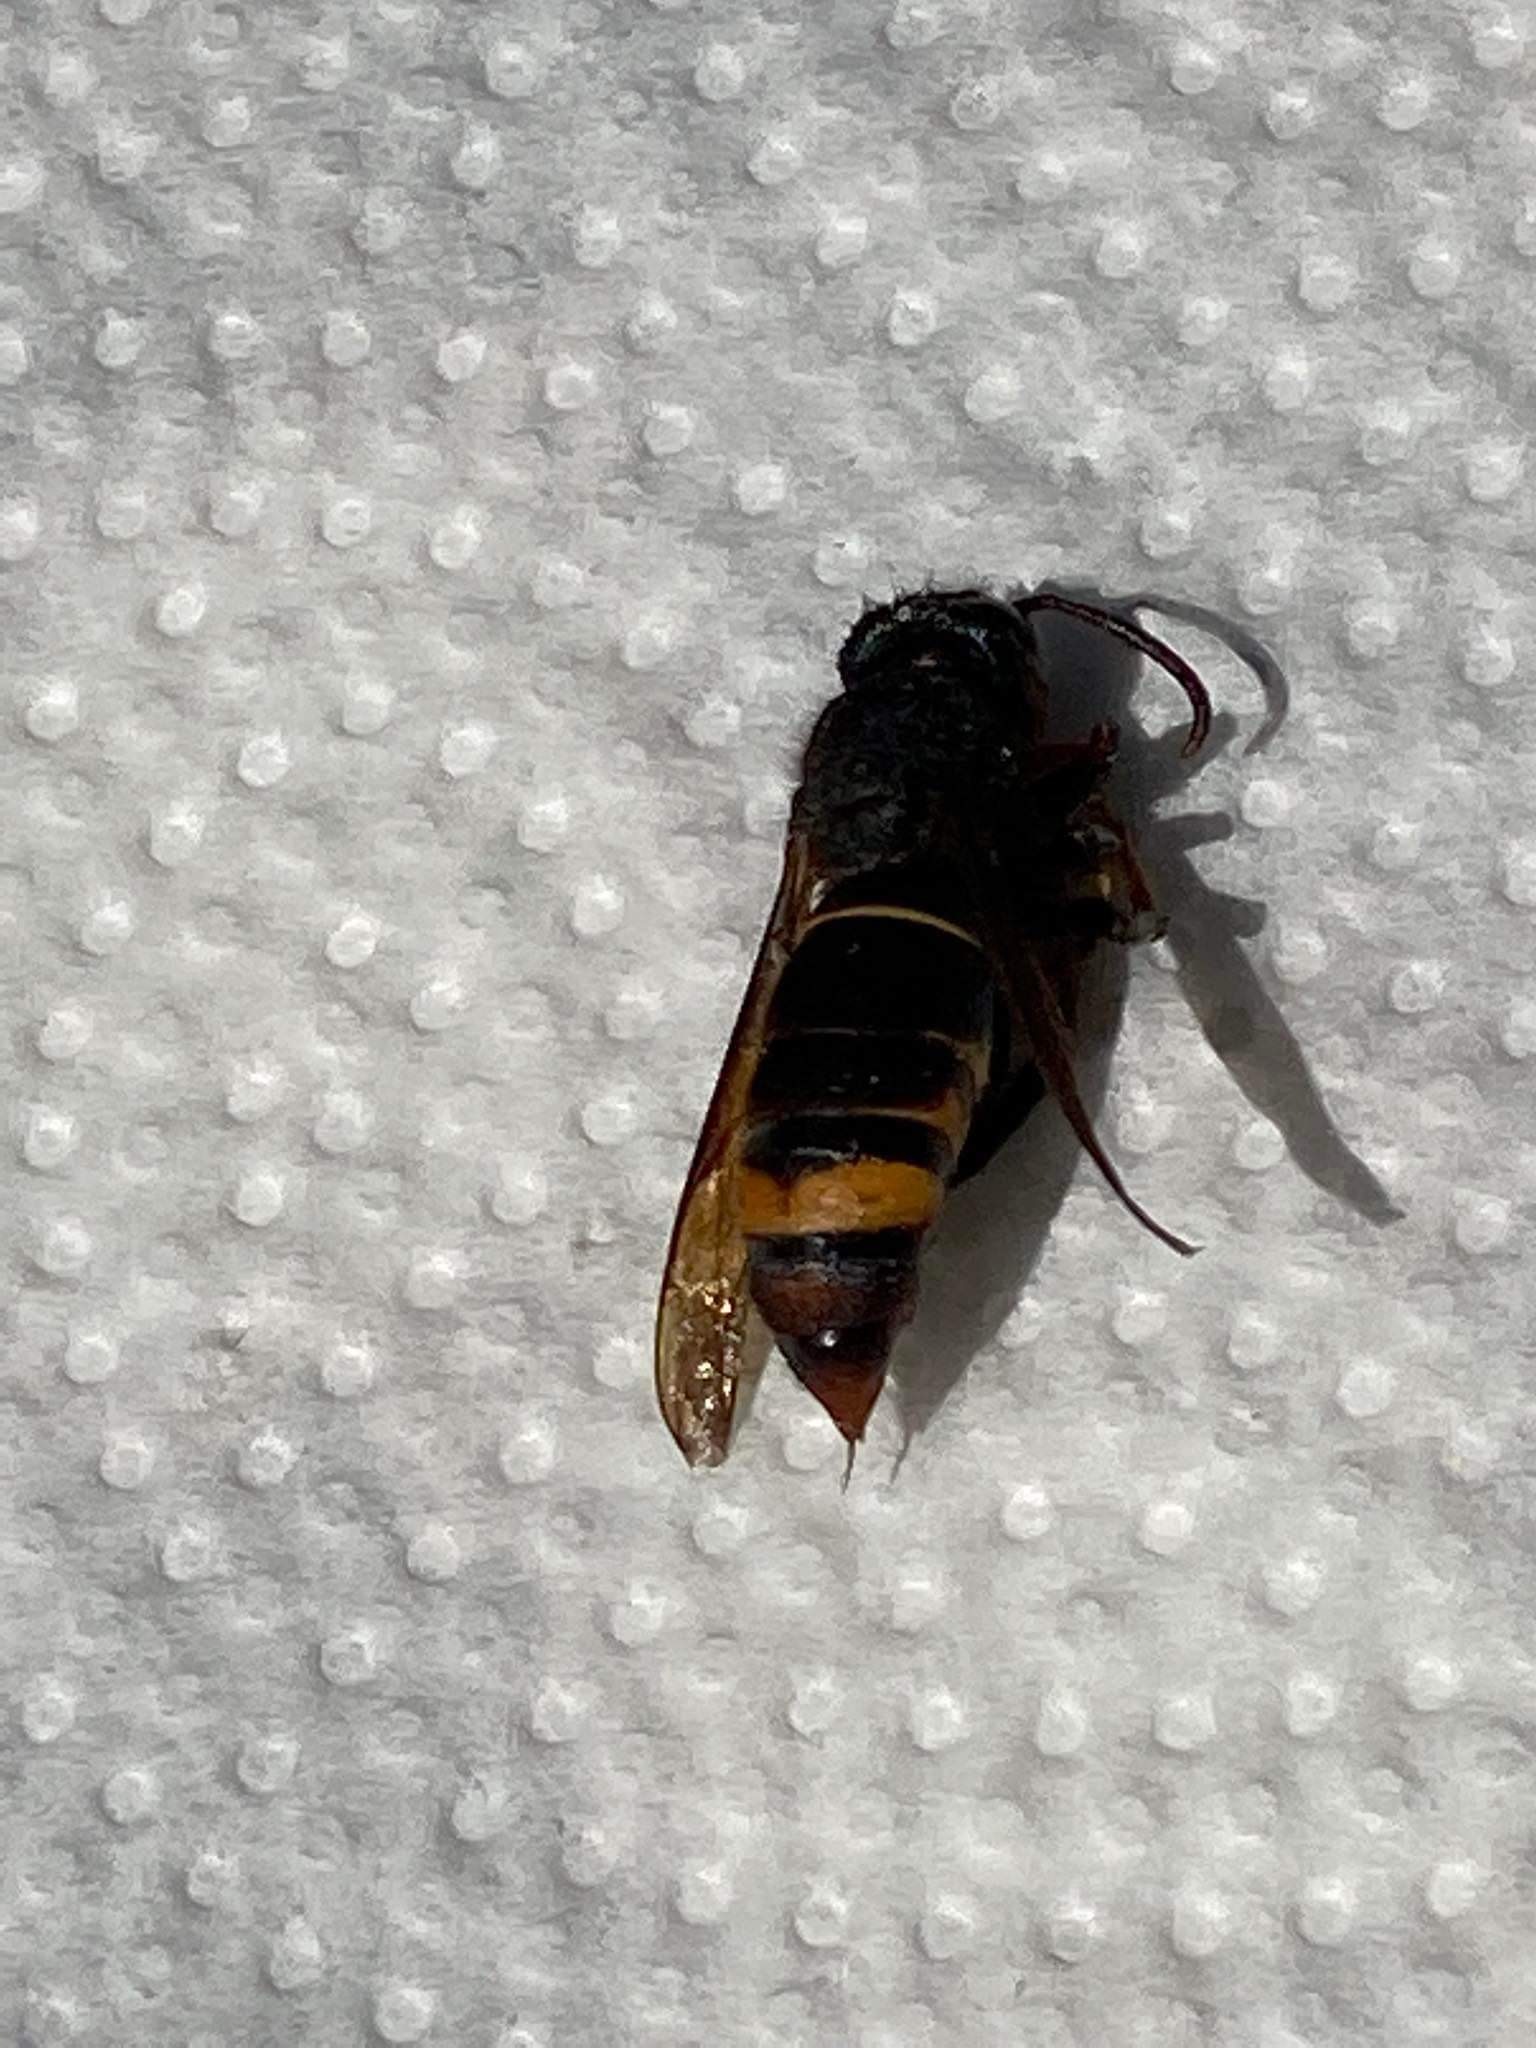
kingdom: Animalia
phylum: Arthropoda
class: Insecta
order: Hymenoptera
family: Vespidae
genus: Vespa
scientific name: Vespa velutina
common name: Asian hornet
